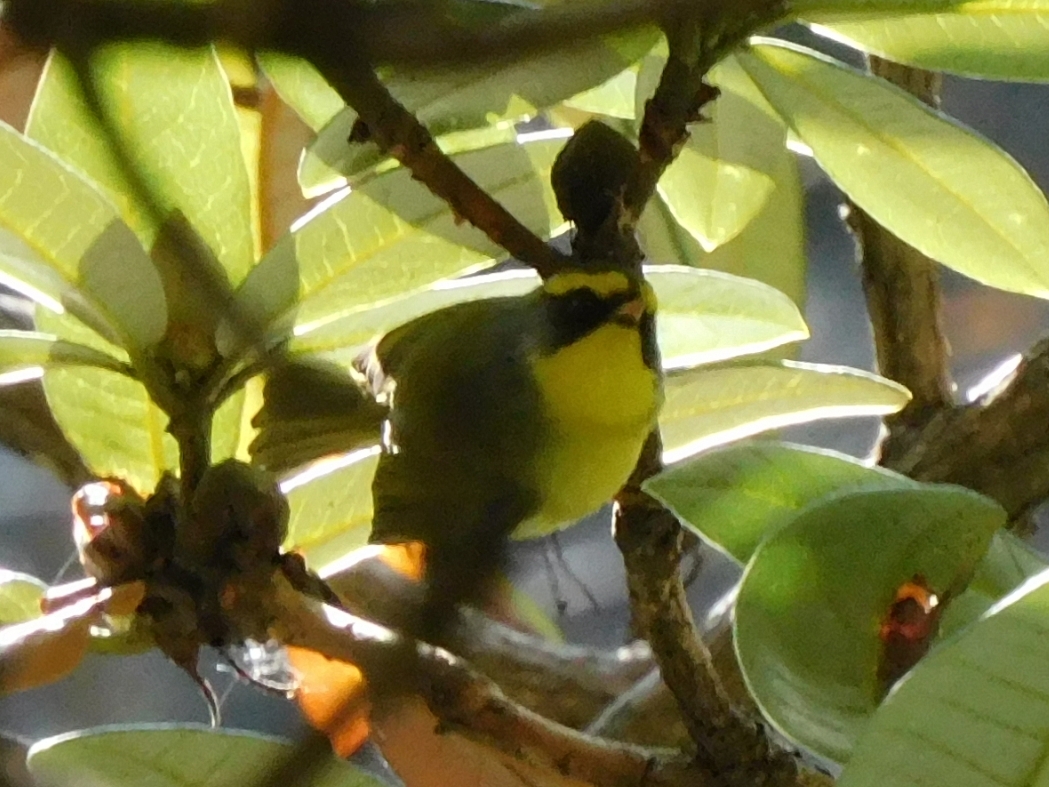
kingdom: Animalia
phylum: Chordata
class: Aves
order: Passeriformes
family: Cettiidae
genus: Abroscopus
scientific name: Abroscopus schisticeps
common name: Black-faced warbler
